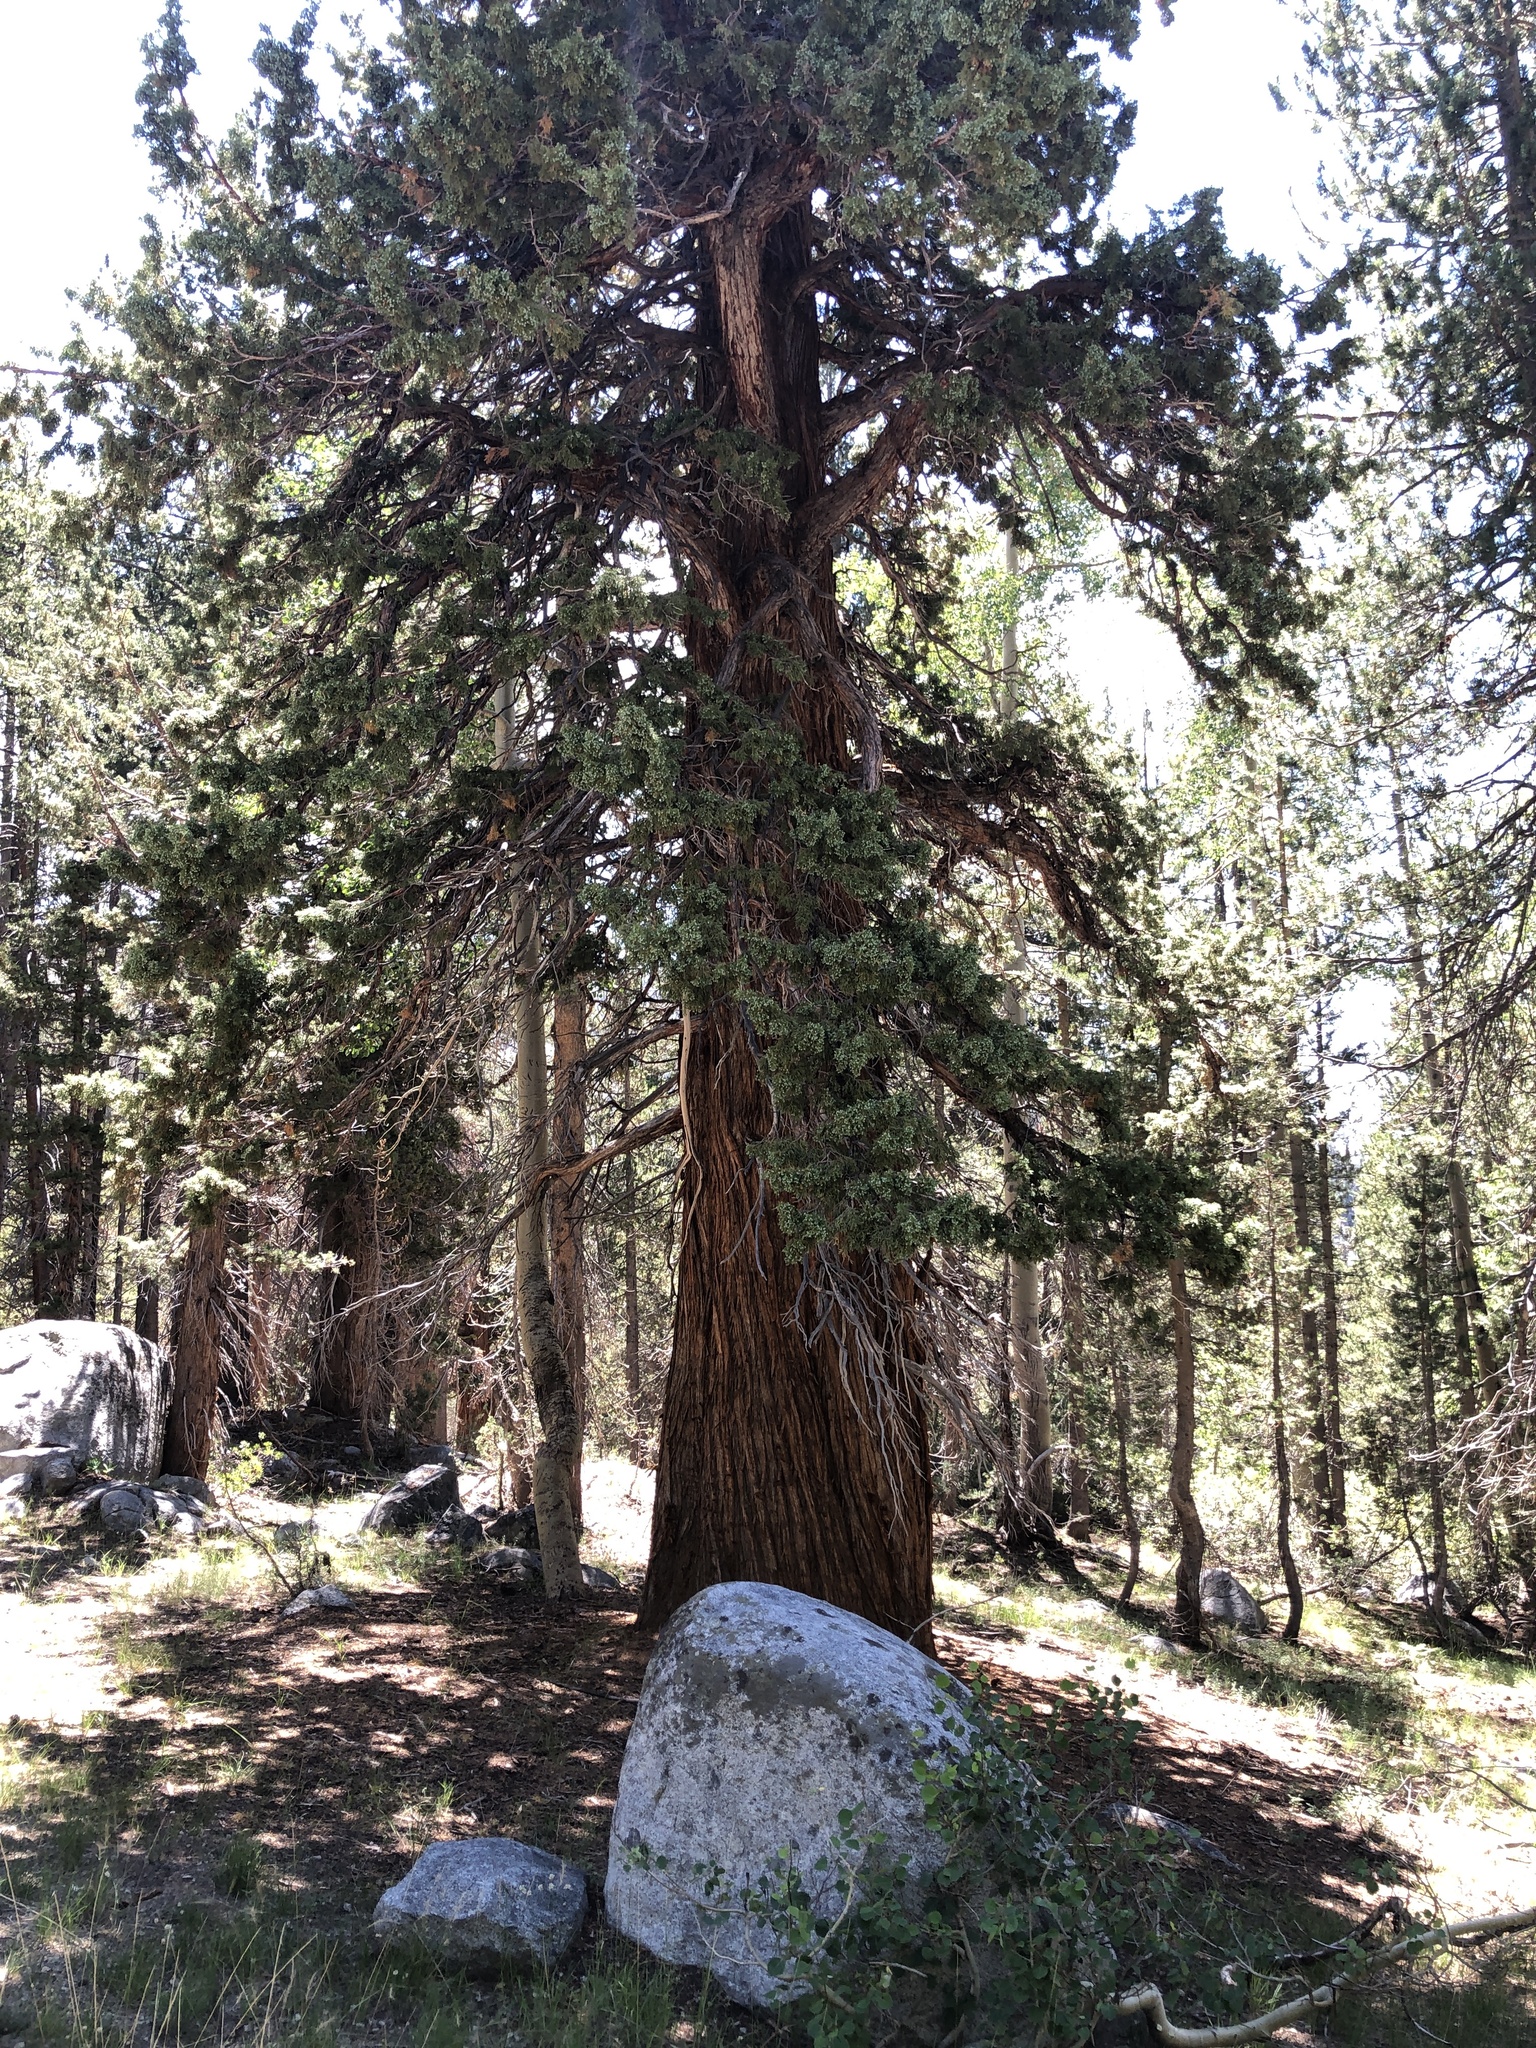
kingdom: Plantae
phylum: Tracheophyta
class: Pinopsida
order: Pinales
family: Cupressaceae
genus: Juniperus
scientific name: Juniperus occidentalis
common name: Western juniper
